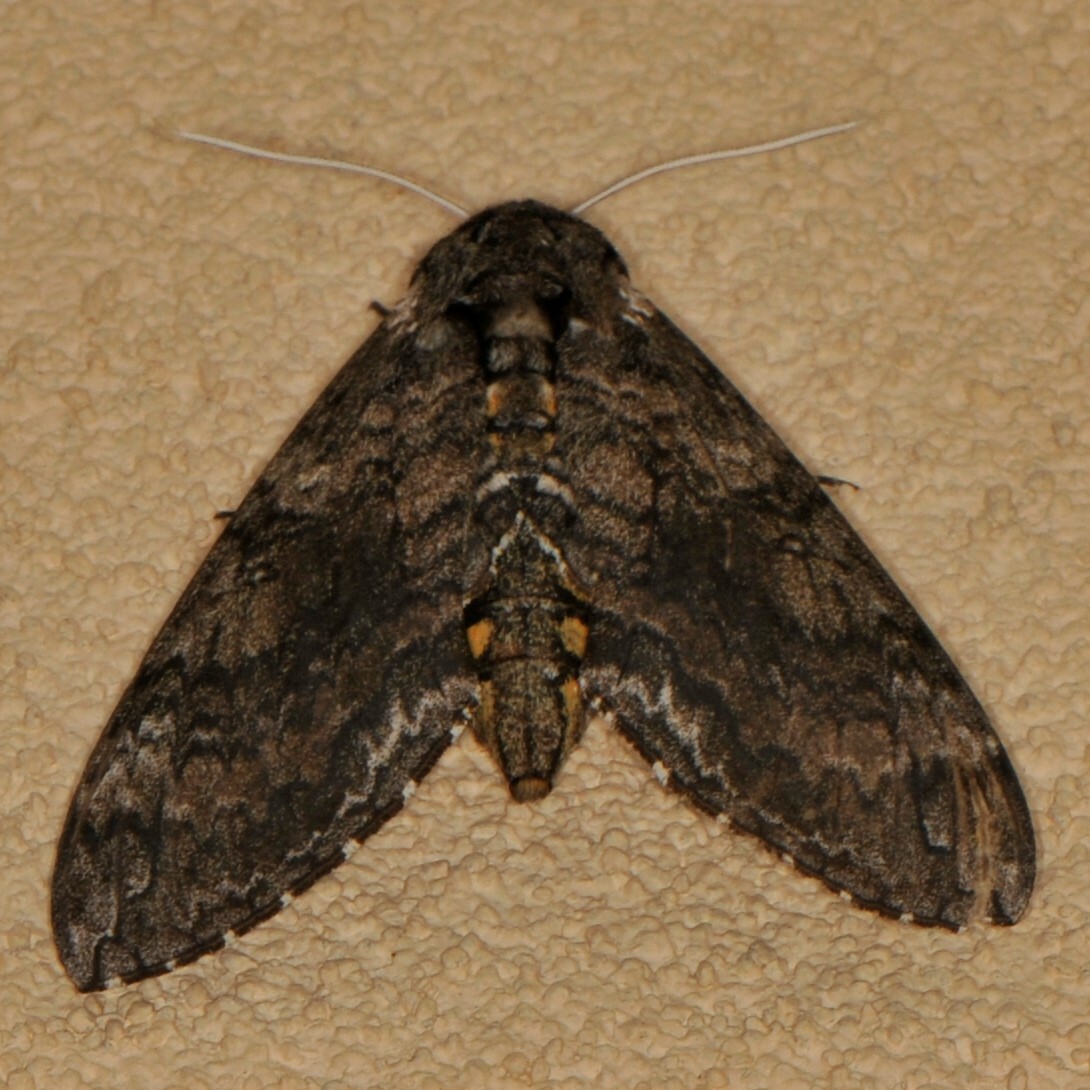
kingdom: Animalia
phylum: Arthropoda
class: Insecta
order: Lepidoptera
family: Sphingidae
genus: Manduca
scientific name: Manduca sexta
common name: Carolina sphinx
